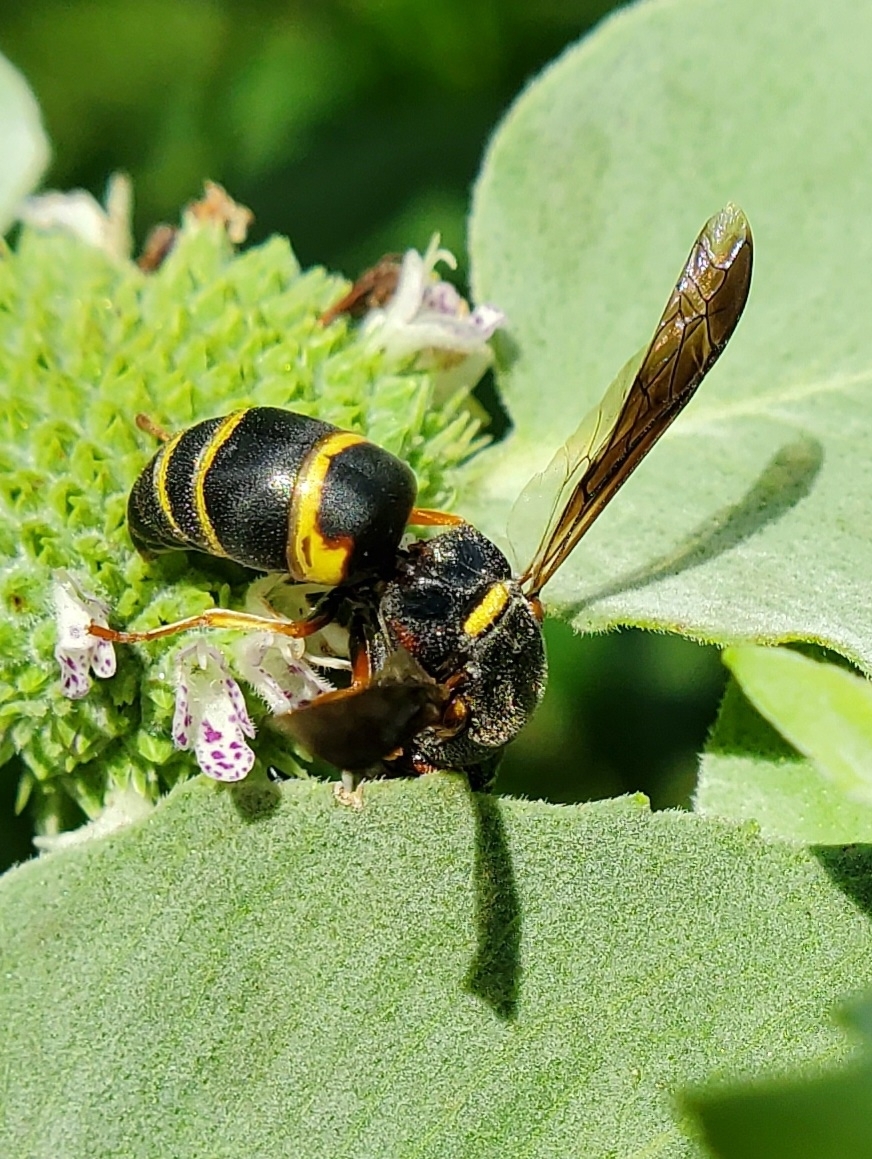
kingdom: Animalia
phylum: Arthropoda
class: Insecta
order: Hymenoptera
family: Eumenidae
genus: Euodynerus
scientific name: Euodynerus hidalgo
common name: Wasp
